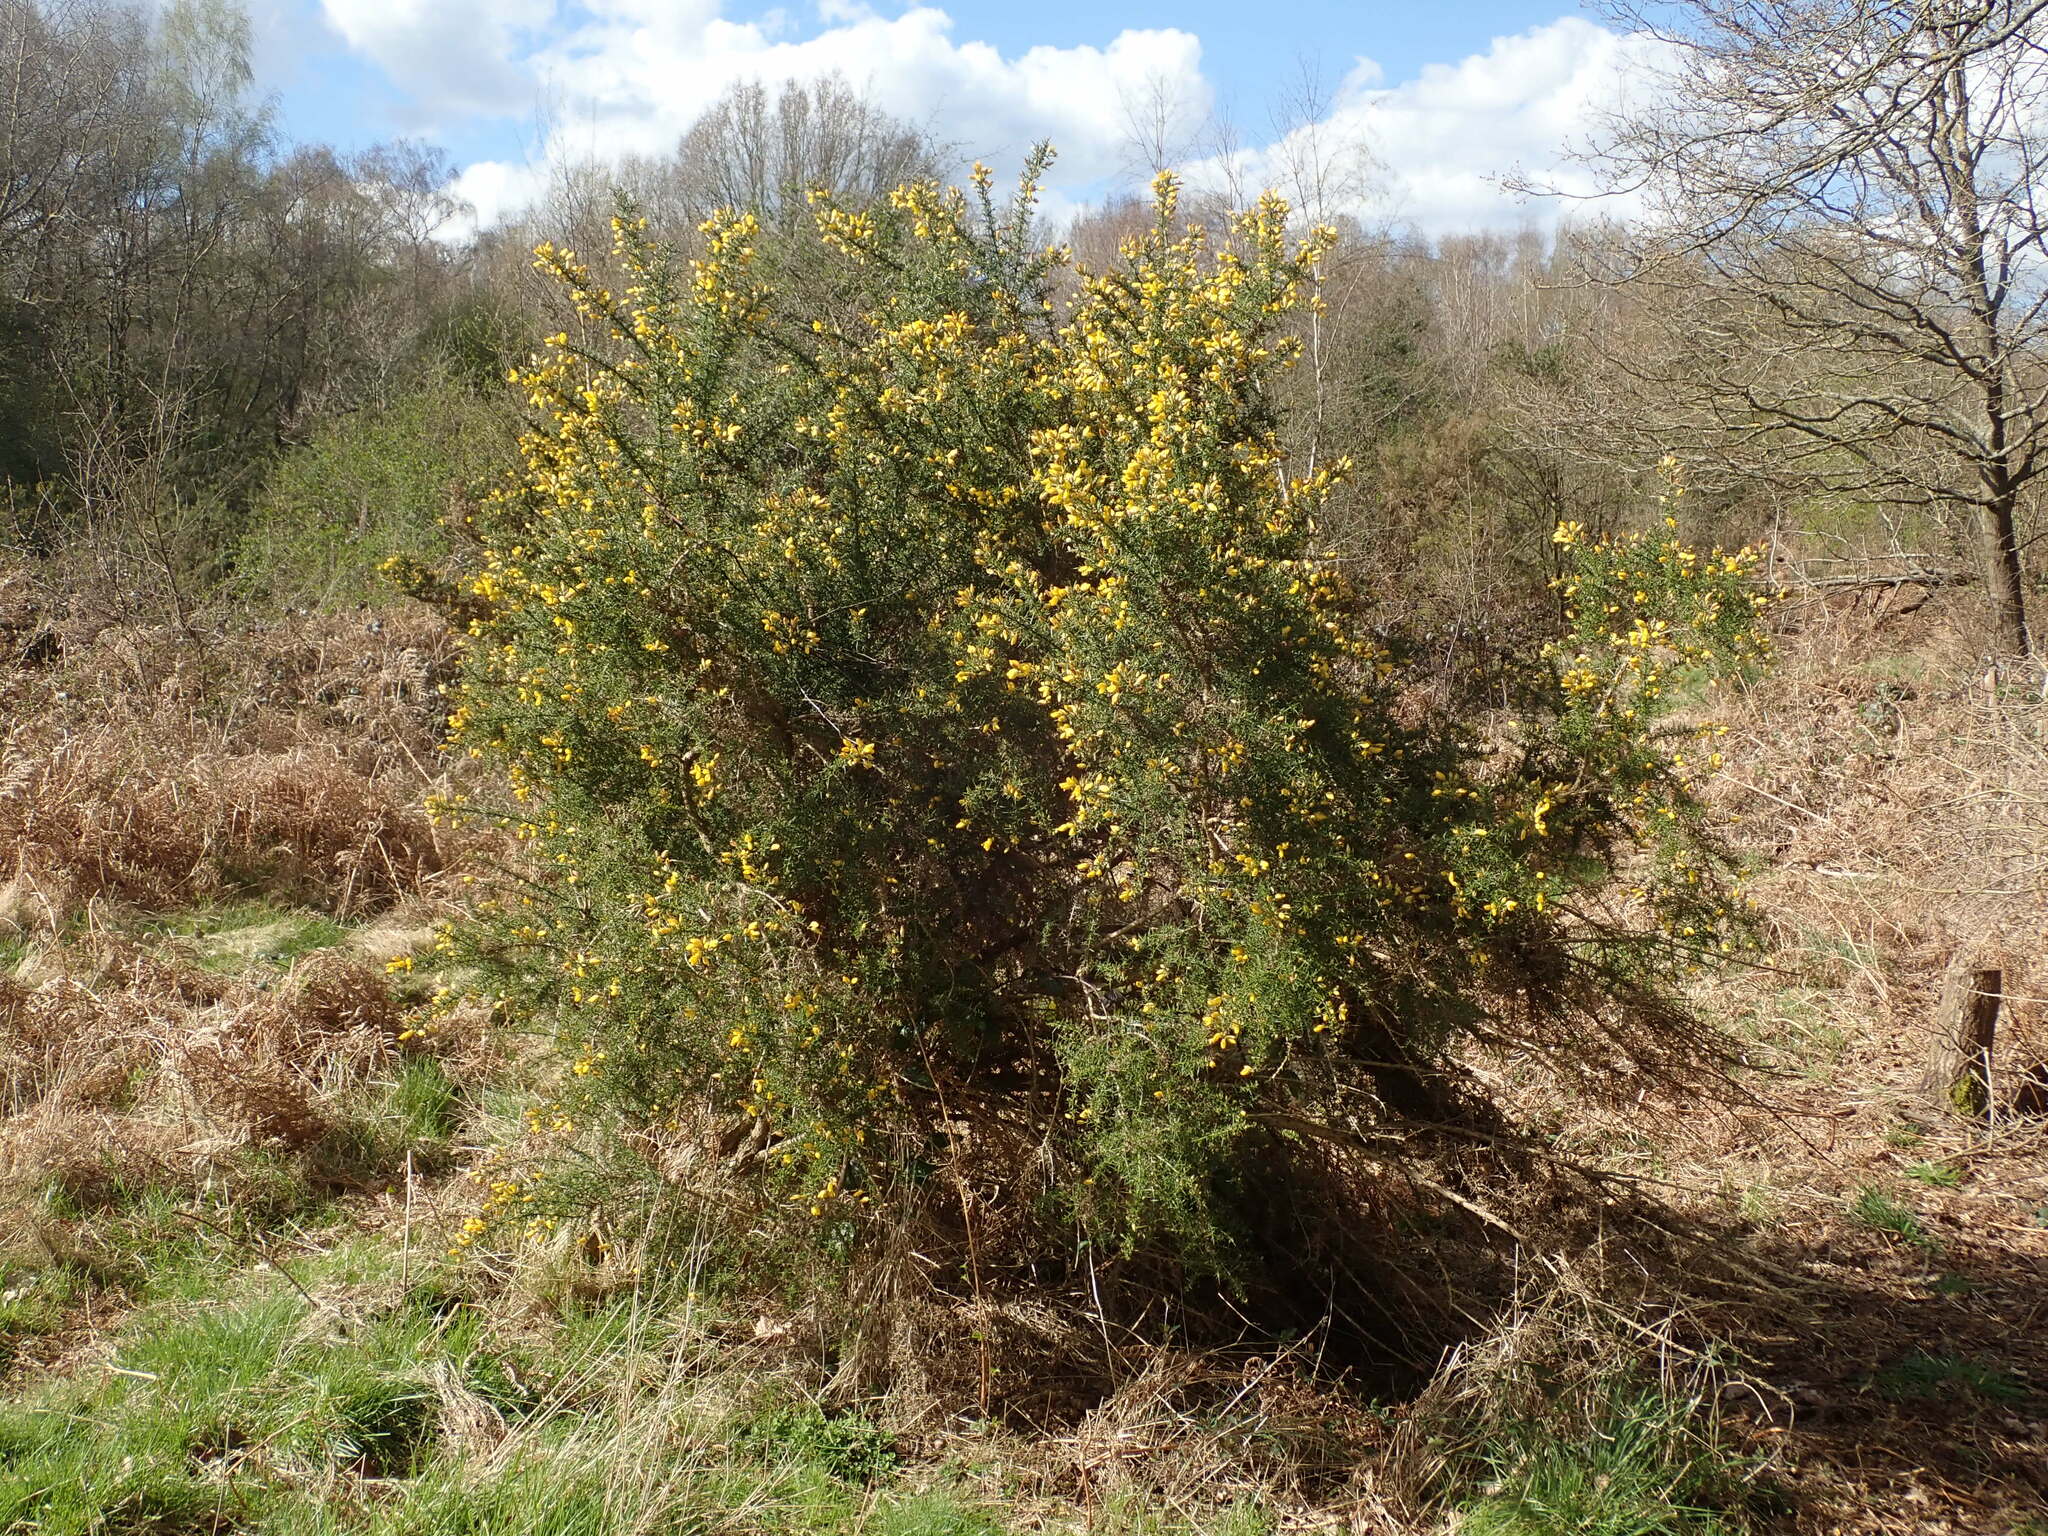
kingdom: Plantae
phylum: Tracheophyta
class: Magnoliopsida
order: Fabales
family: Fabaceae
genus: Ulex
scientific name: Ulex europaeus
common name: Common gorse
